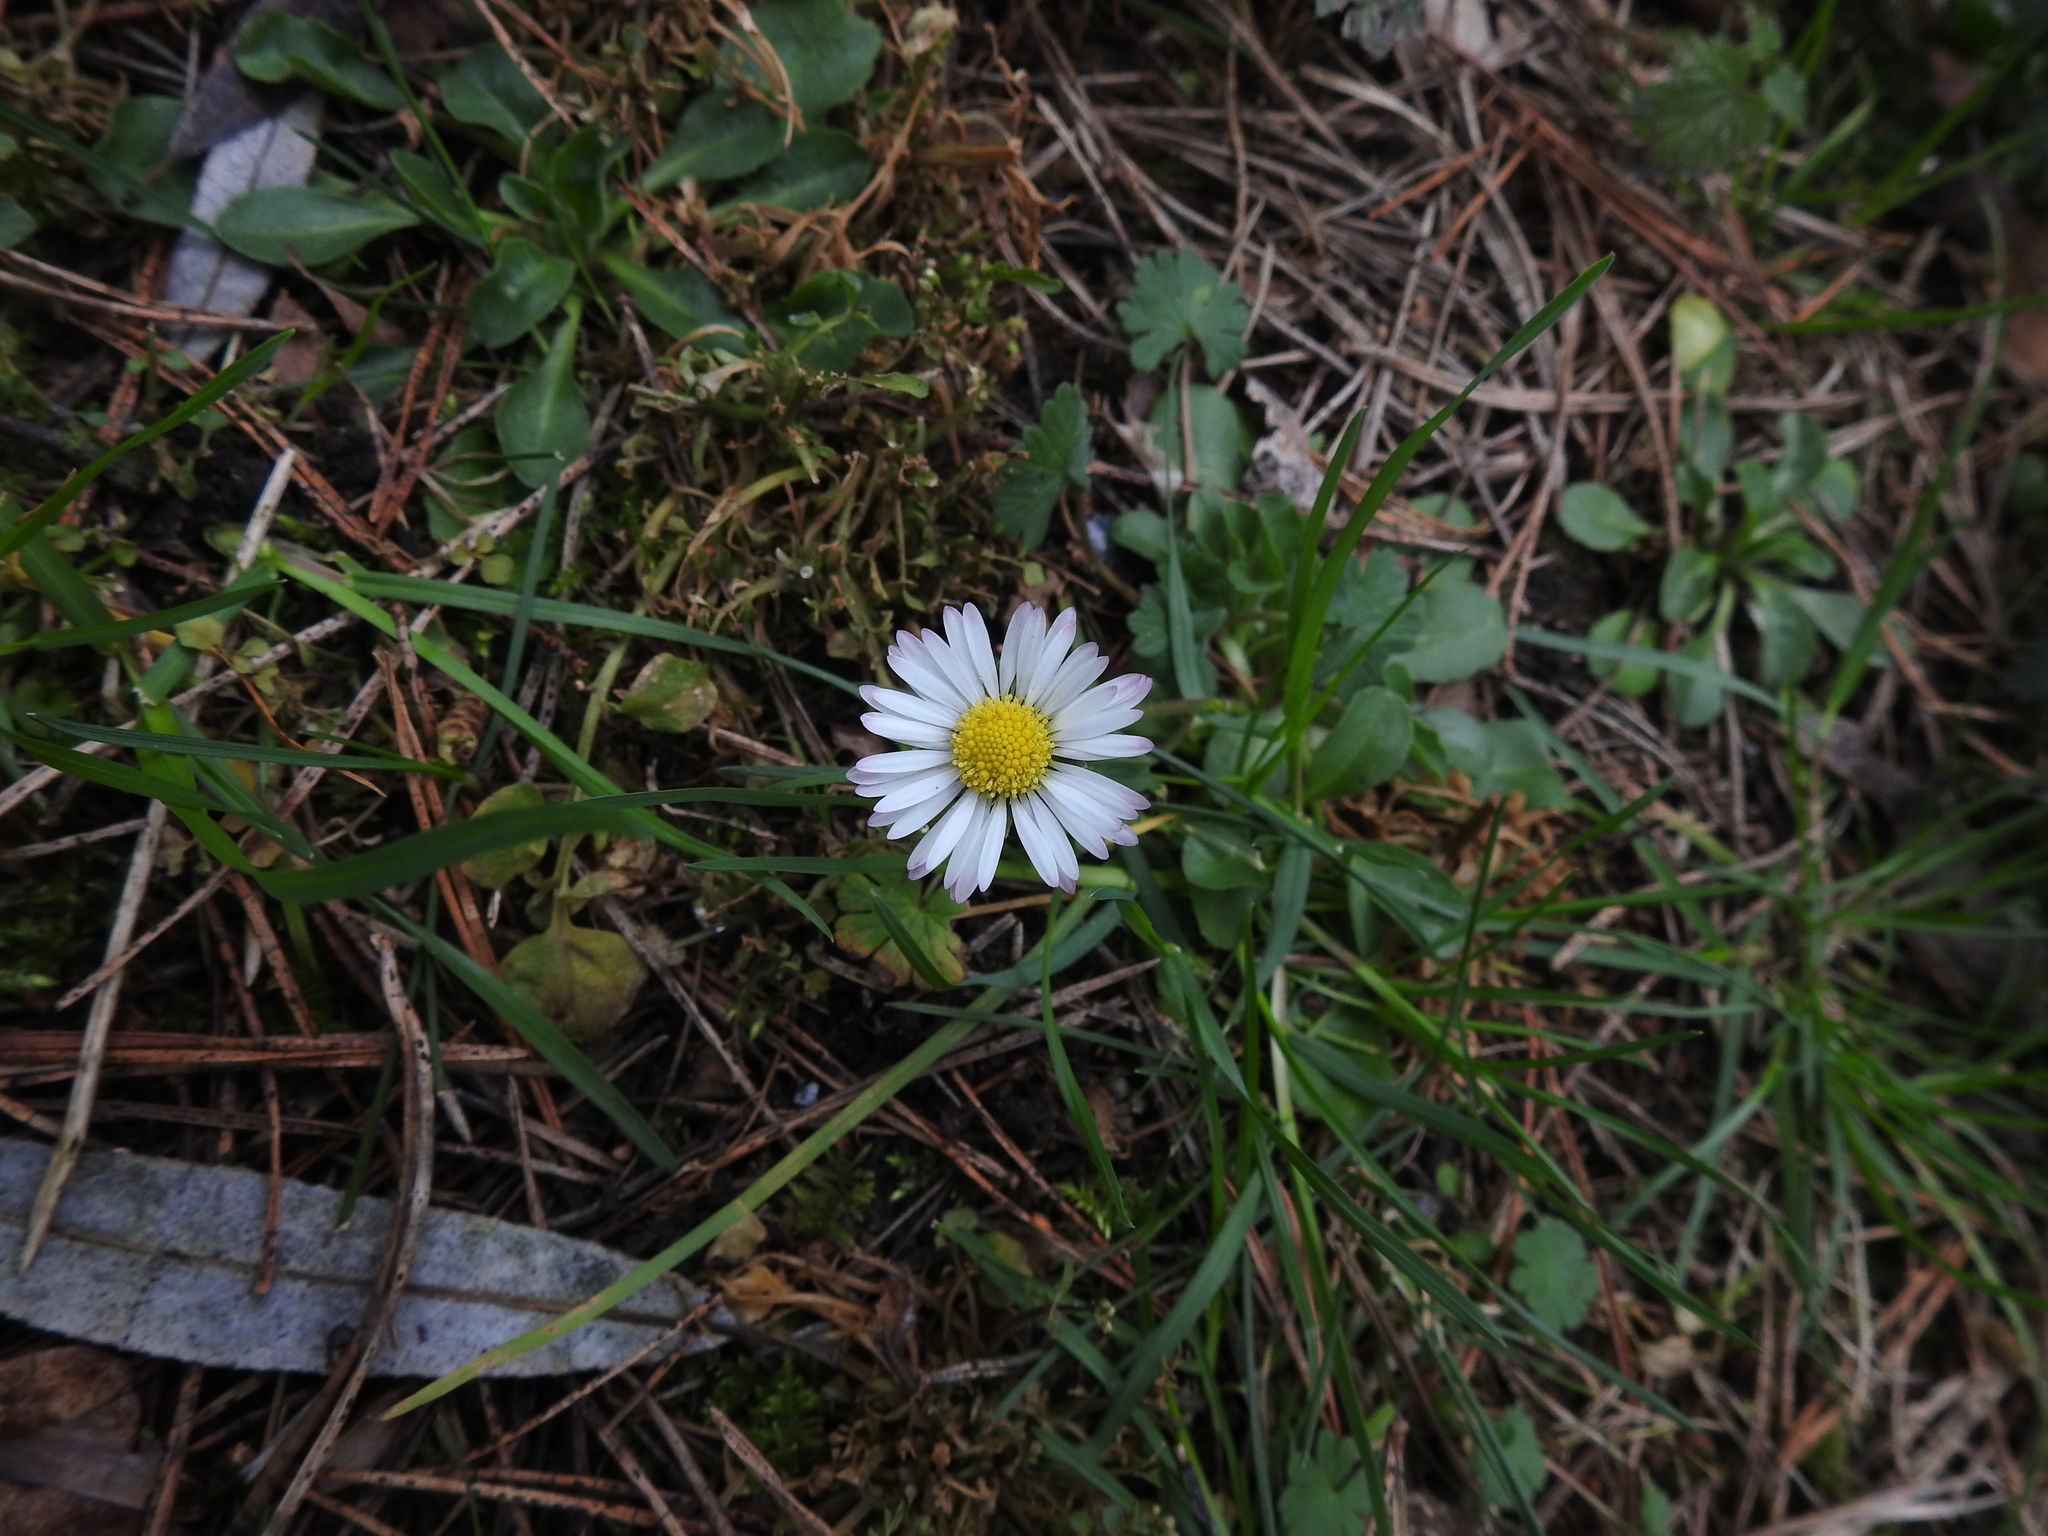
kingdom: Plantae
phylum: Tracheophyta
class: Magnoliopsida
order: Asterales
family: Asteraceae
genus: Bellis
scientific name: Bellis perennis
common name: Lawndaisy
